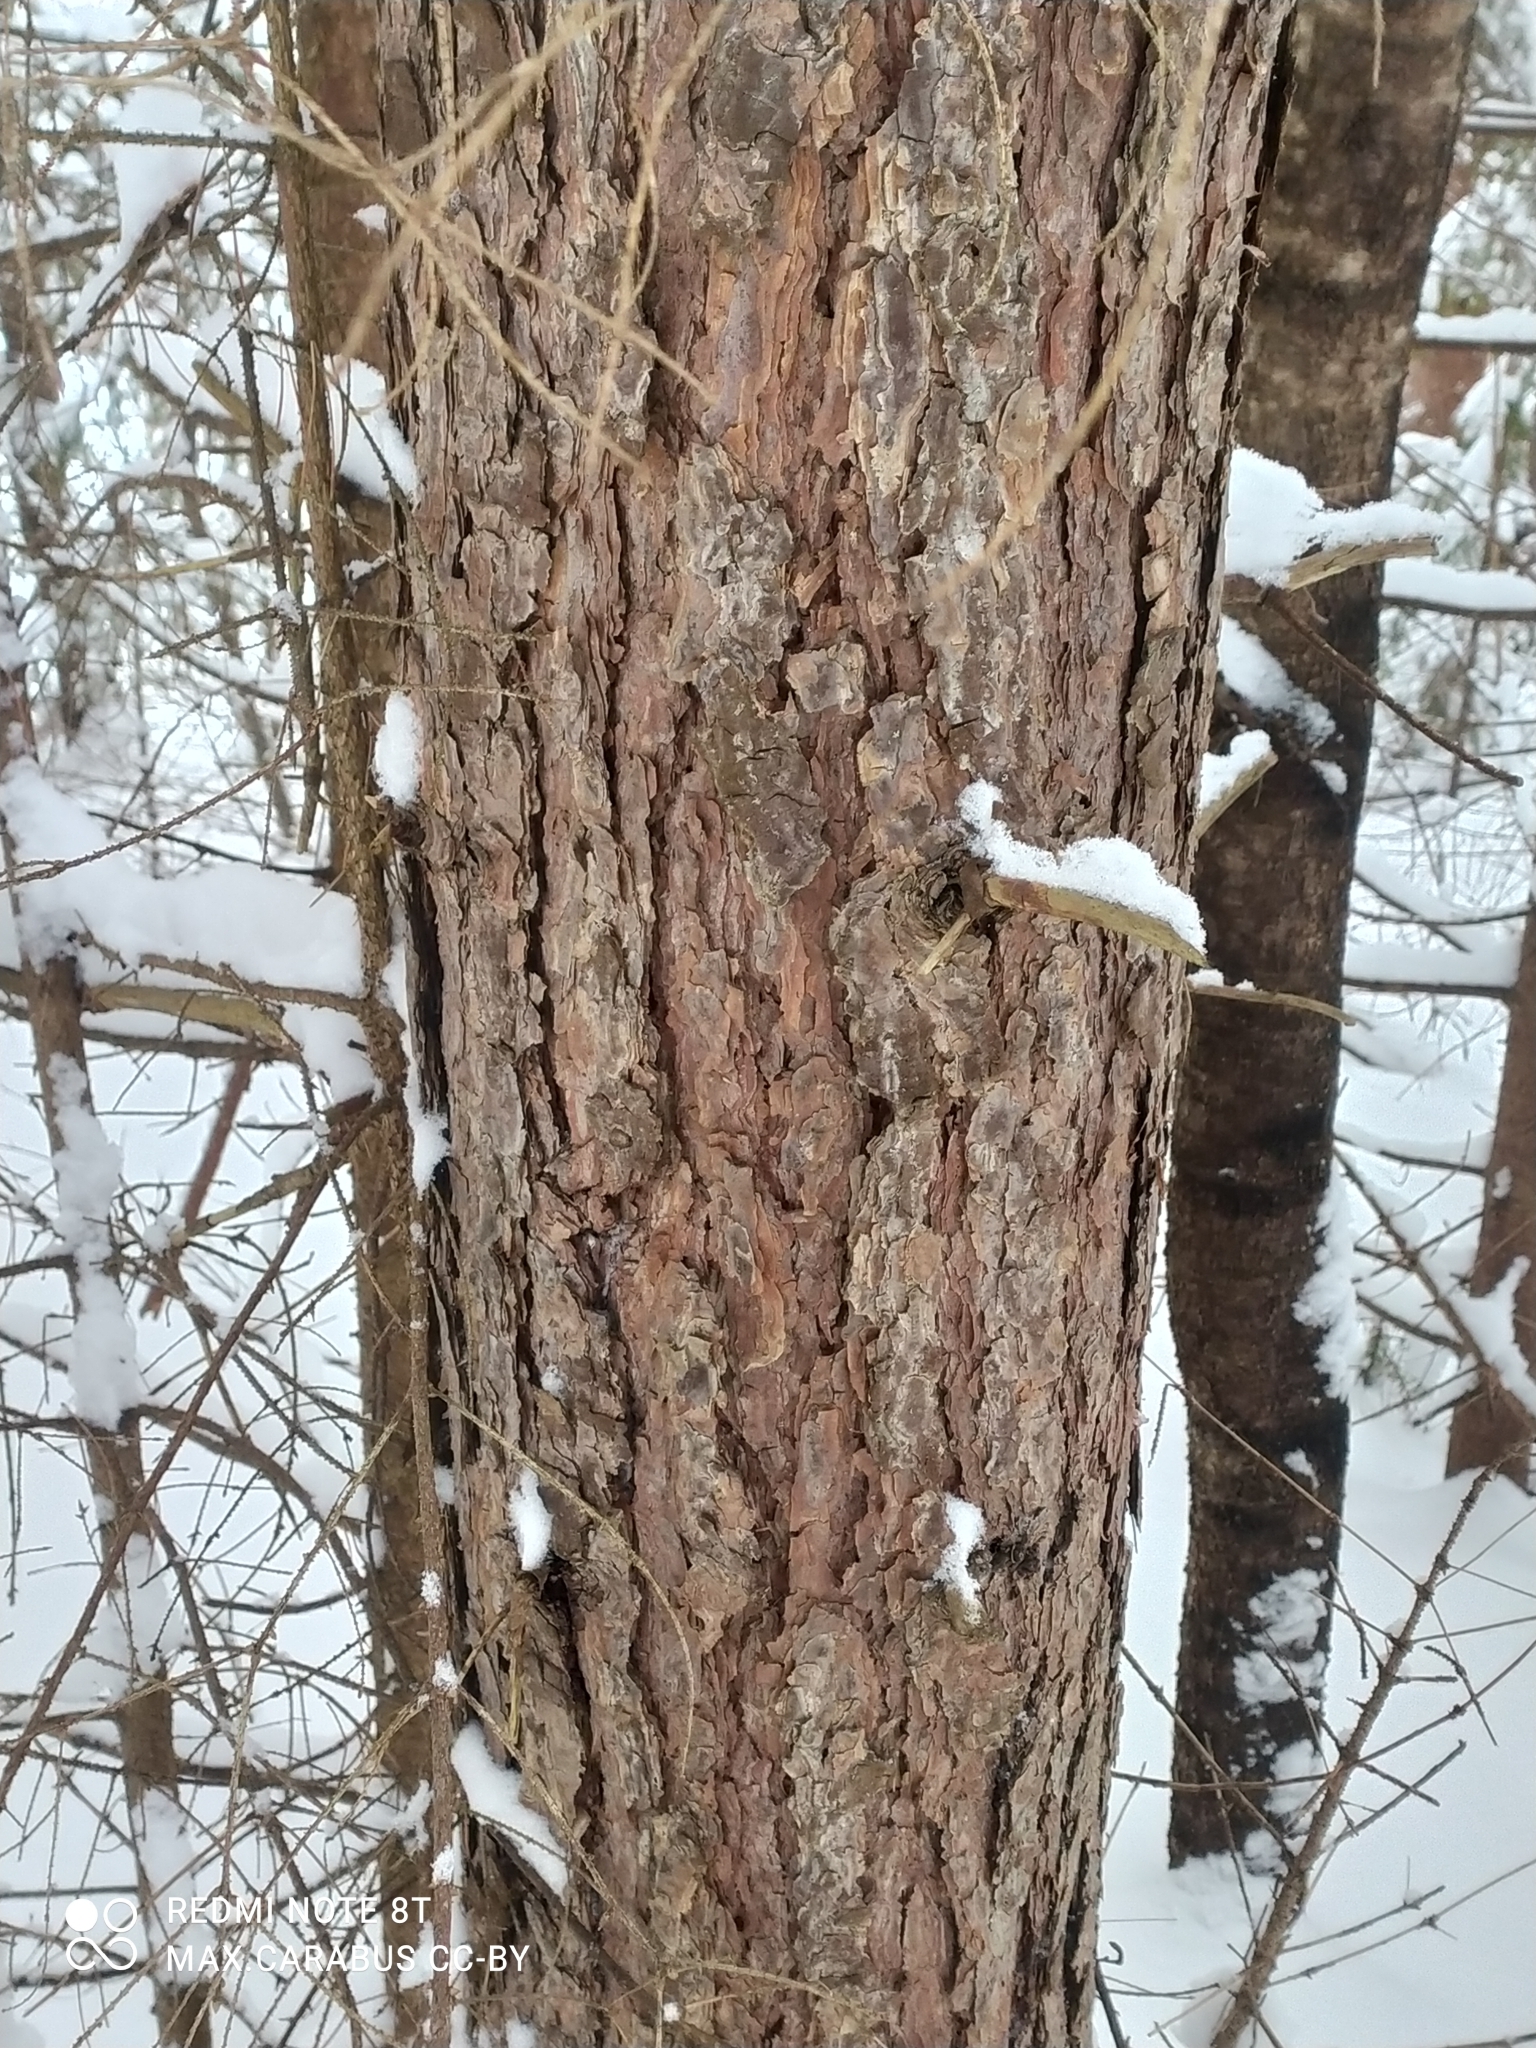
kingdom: Plantae
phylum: Tracheophyta
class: Pinopsida
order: Pinales
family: Pinaceae
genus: Pinus
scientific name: Pinus sylvestris
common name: Scots pine
